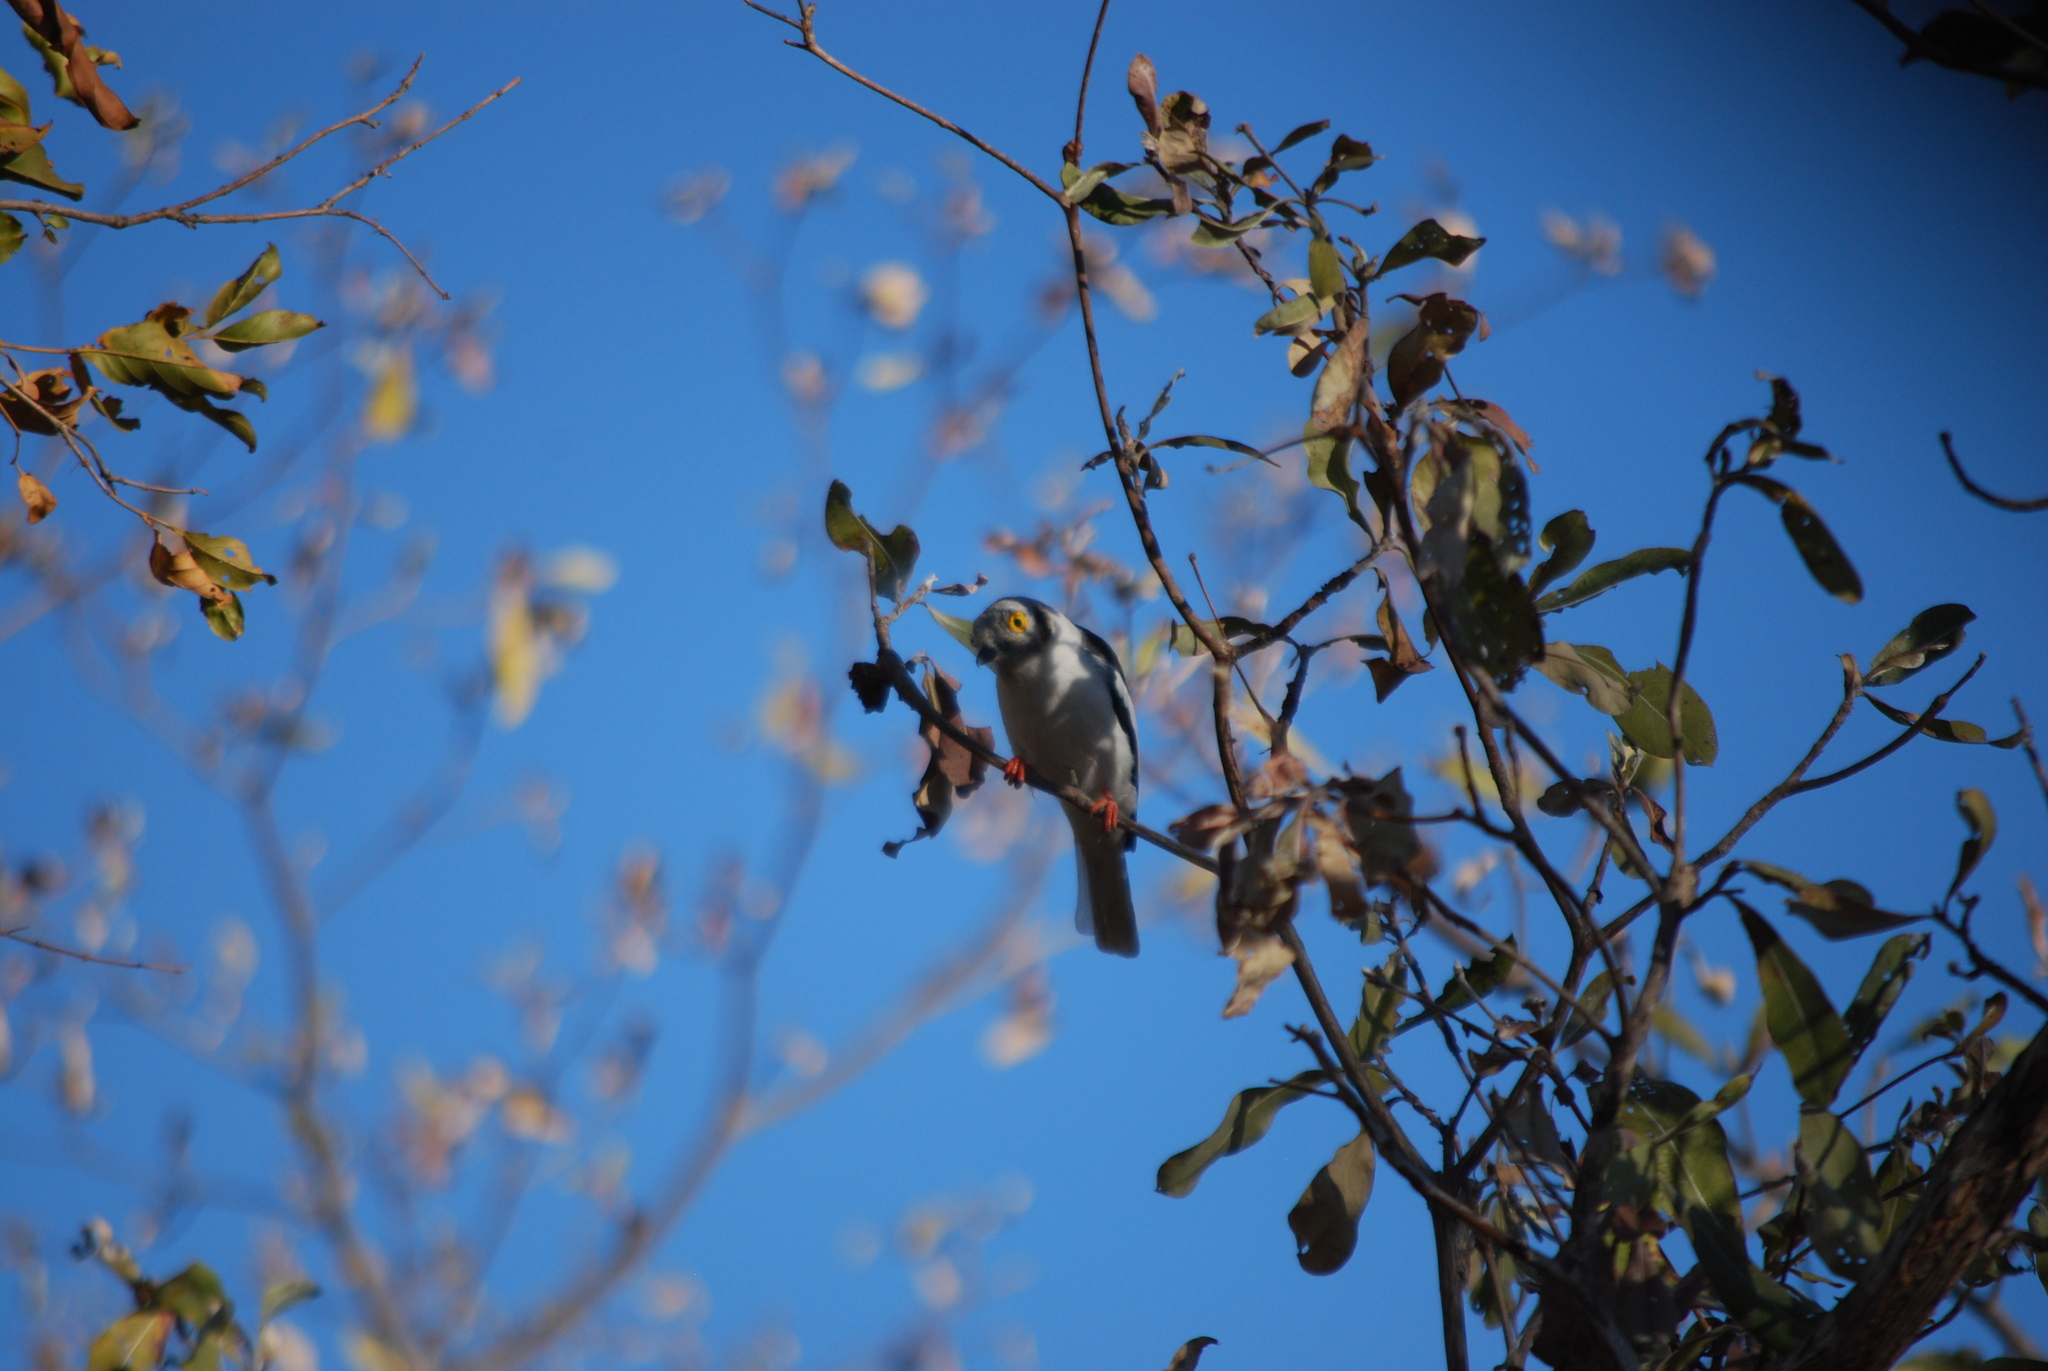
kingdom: Animalia
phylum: Chordata
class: Aves
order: Passeriformes
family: Prionopidae
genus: Prionops
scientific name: Prionops plumatus
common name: White-crested helmetshrike
